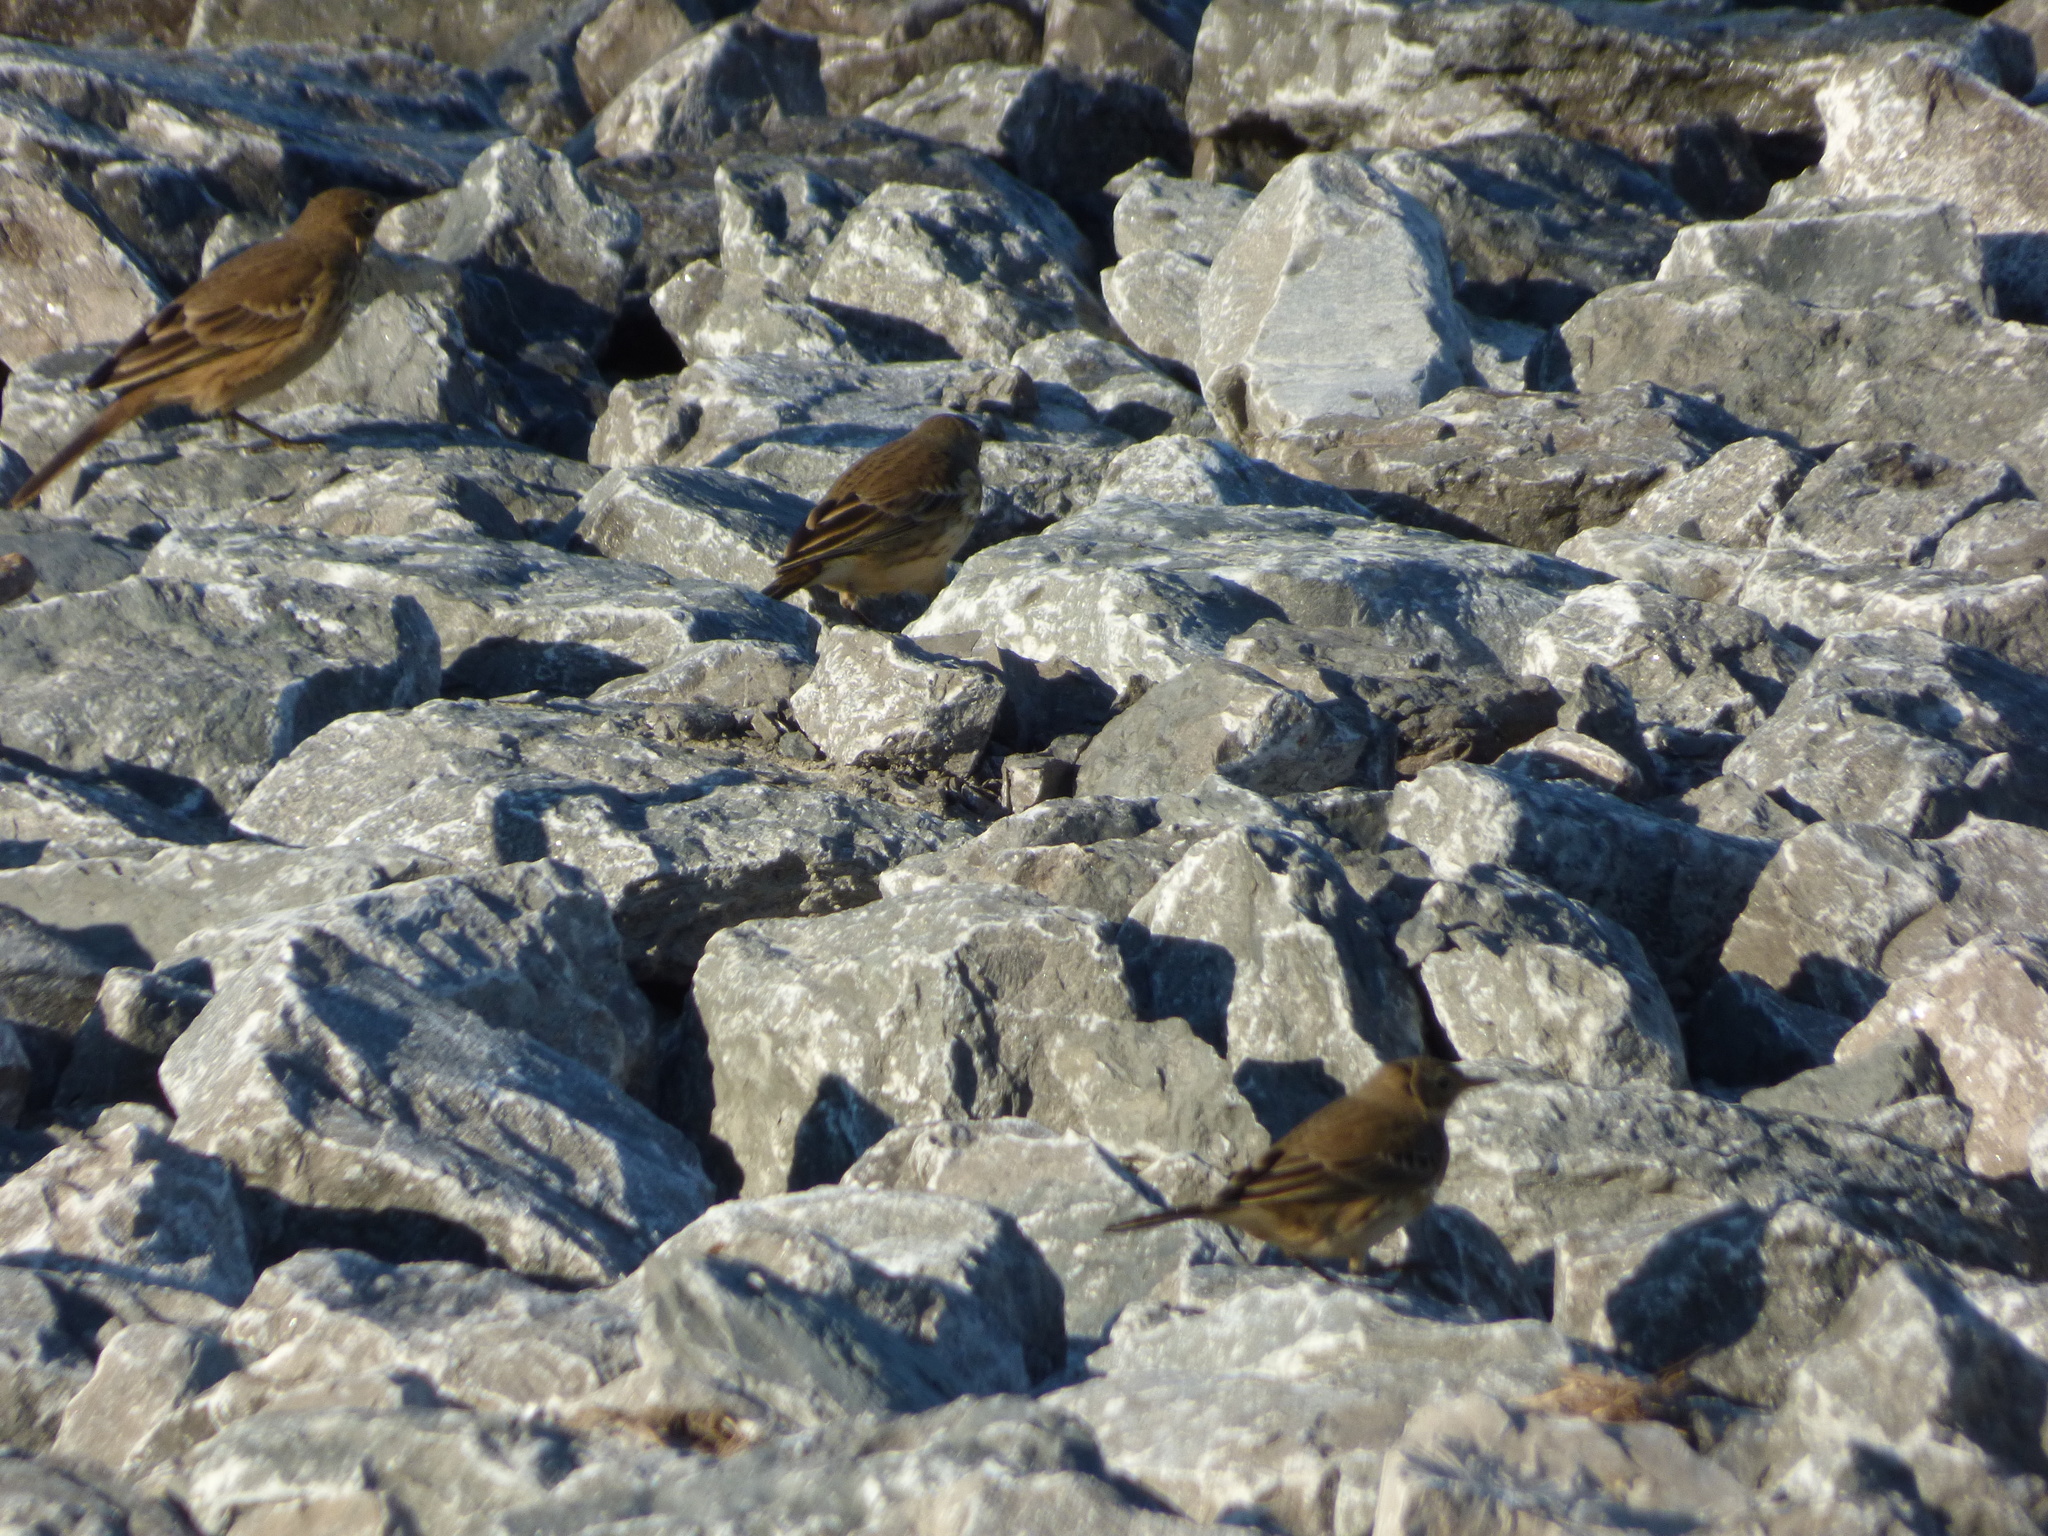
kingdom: Animalia
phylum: Chordata
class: Aves
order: Passeriformes
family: Motacillidae
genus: Anthus
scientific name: Anthus rubescens
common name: Buff-bellied pipit
